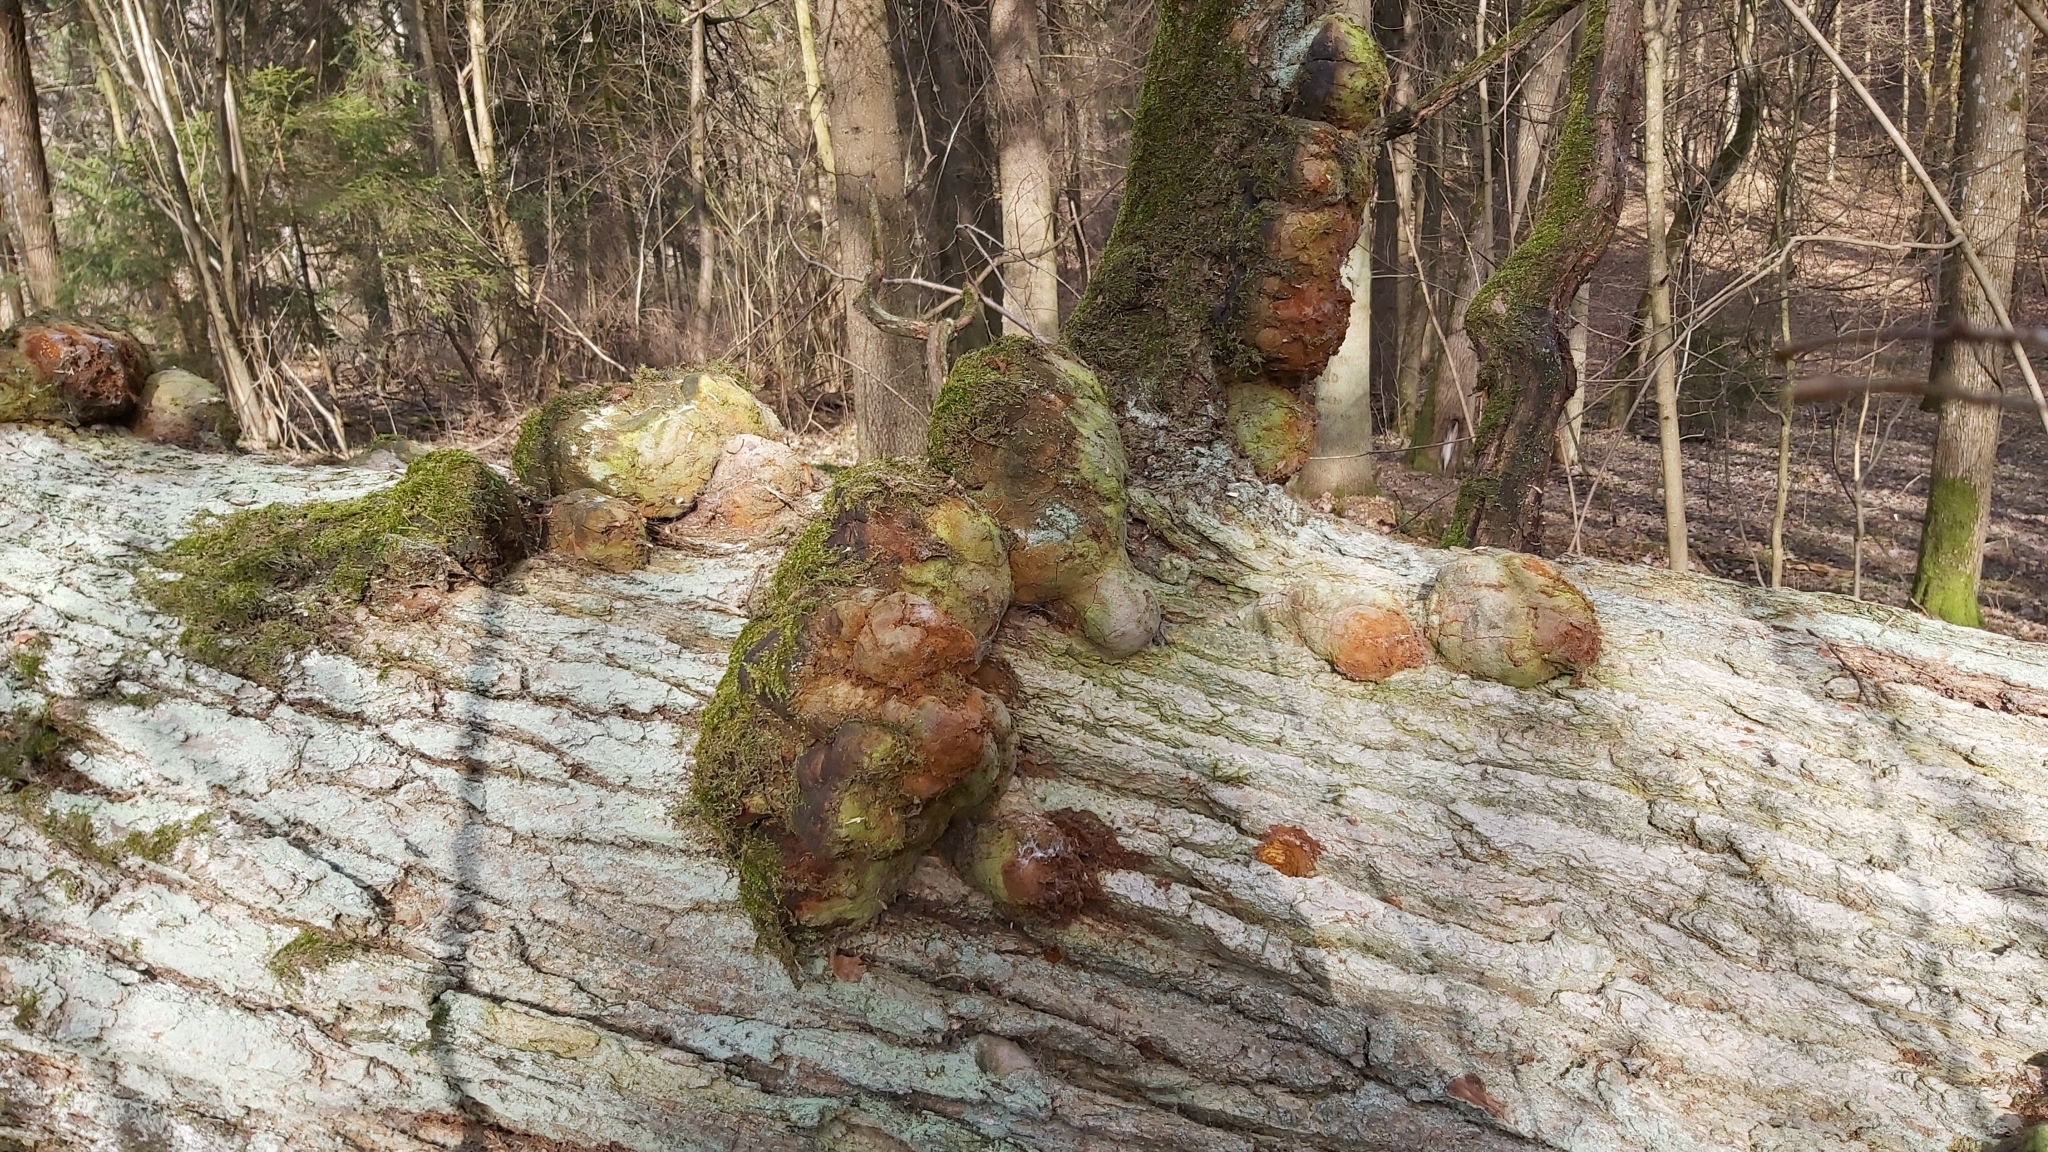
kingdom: Fungi
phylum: Basidiomycota
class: Agaricomycetes
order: Hymenochaetales
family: Hymenochaetaceae
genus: Fomitiporia
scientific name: Fomitiporia robusta
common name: Robust bracket
